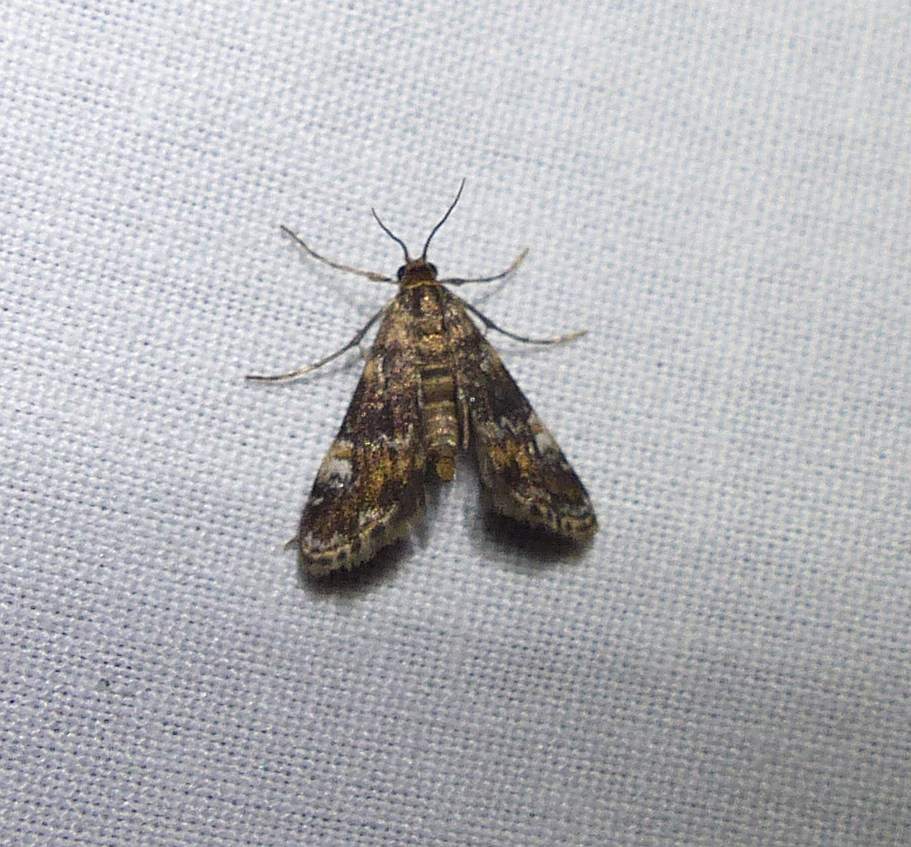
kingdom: Animalia
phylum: Arthropoda
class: Insecta
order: Lepidoptera
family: Crambidae
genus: Elophila
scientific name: Elophila obliteralis
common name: Waterlily leafcutter moth
